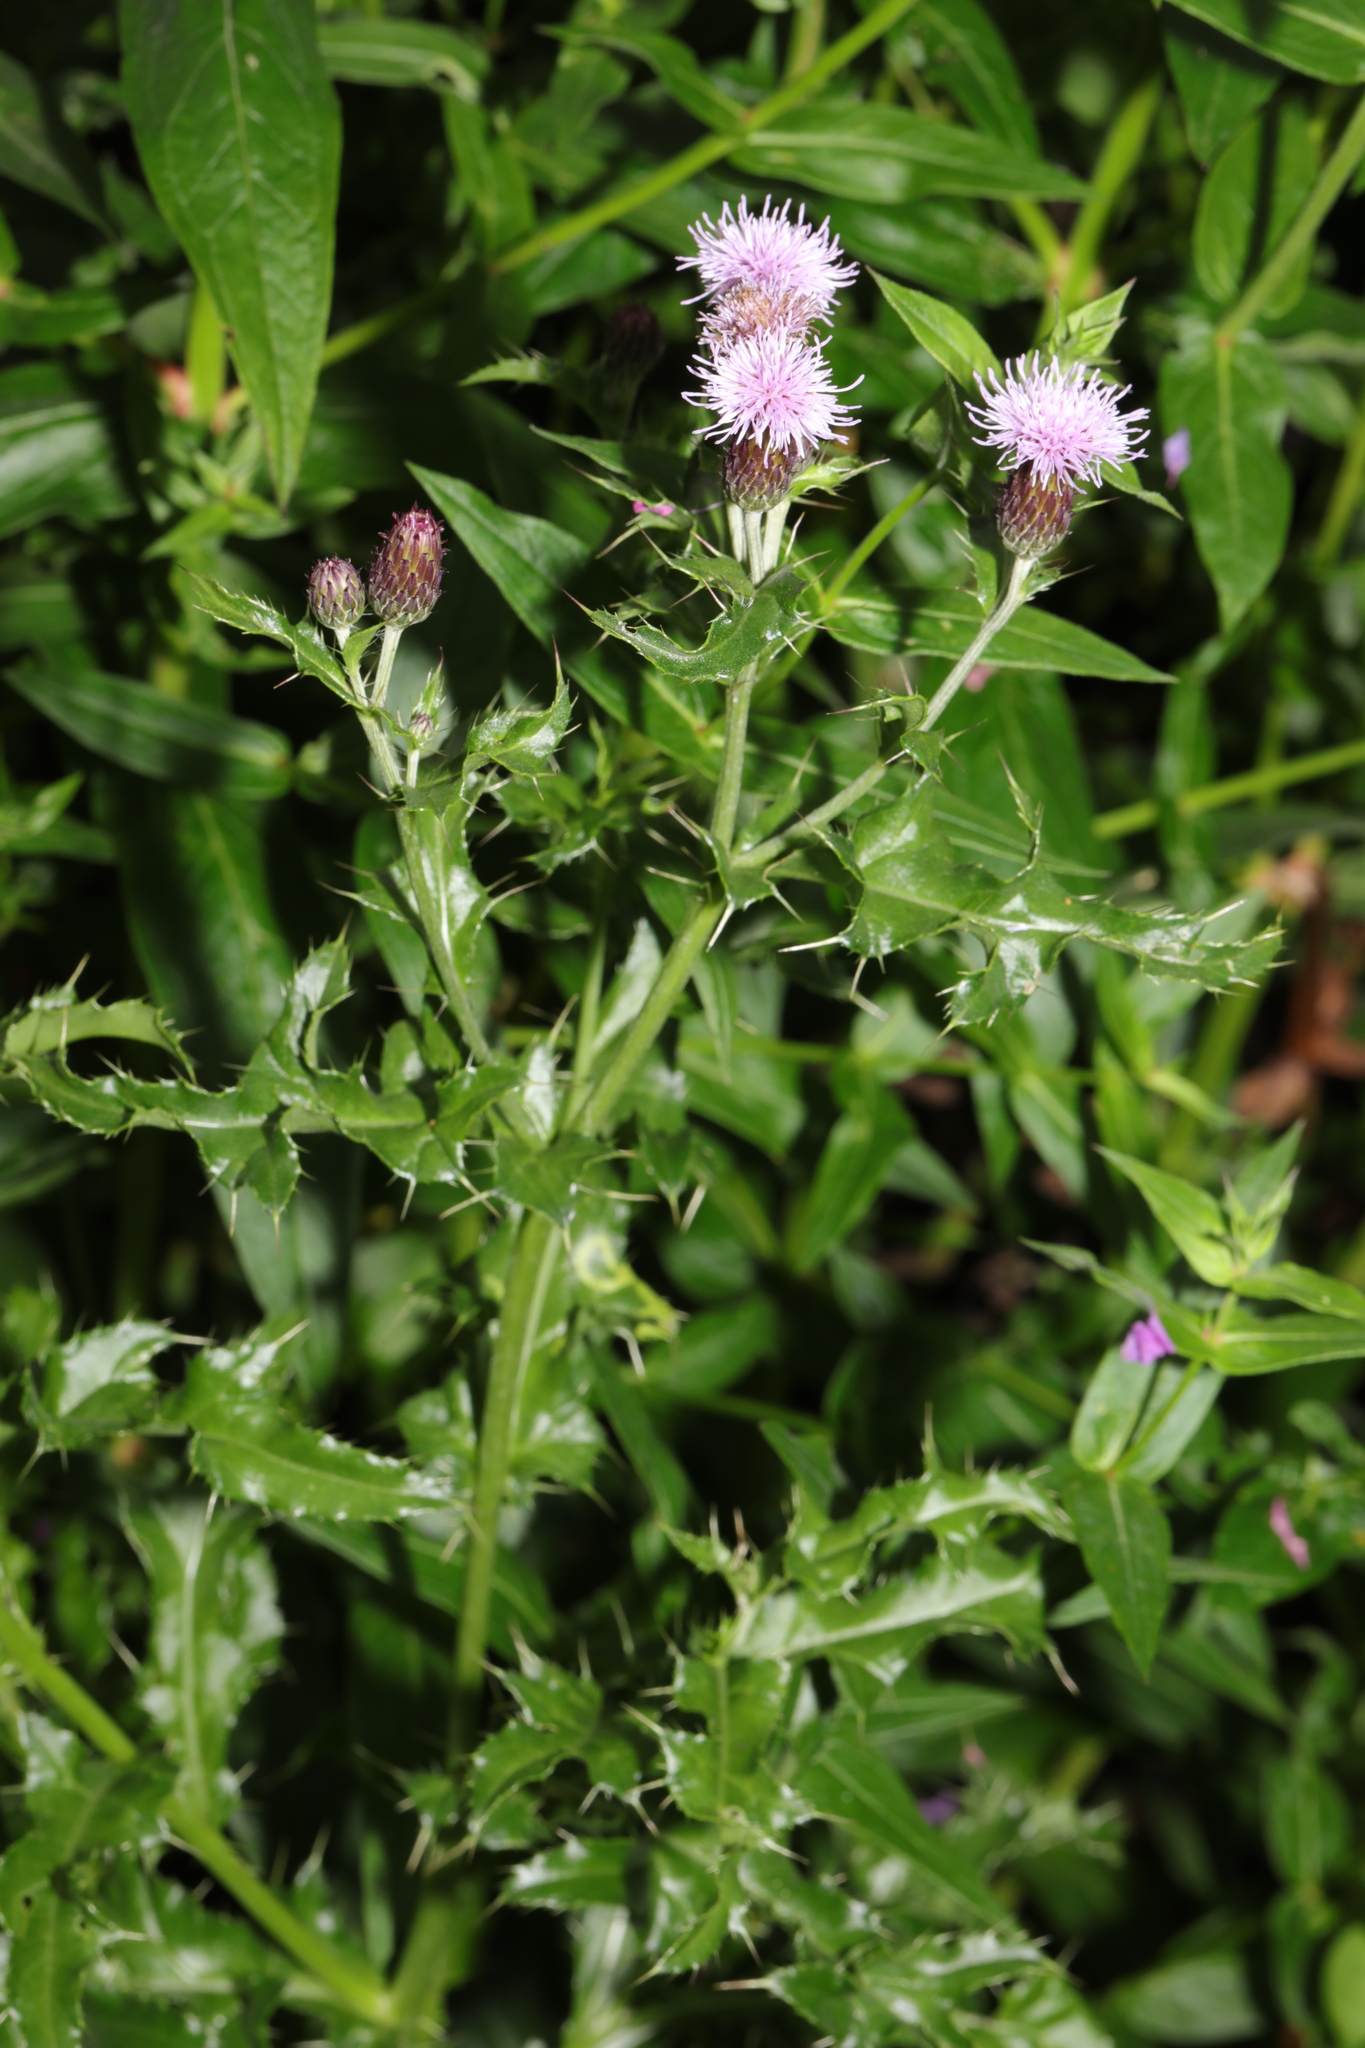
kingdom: Plantae
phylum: Tracheophyta
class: Magnoliopsida
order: Asterales
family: Asteraceae
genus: Cirsium
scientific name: Cirsium arvense
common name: Creeping thistle
